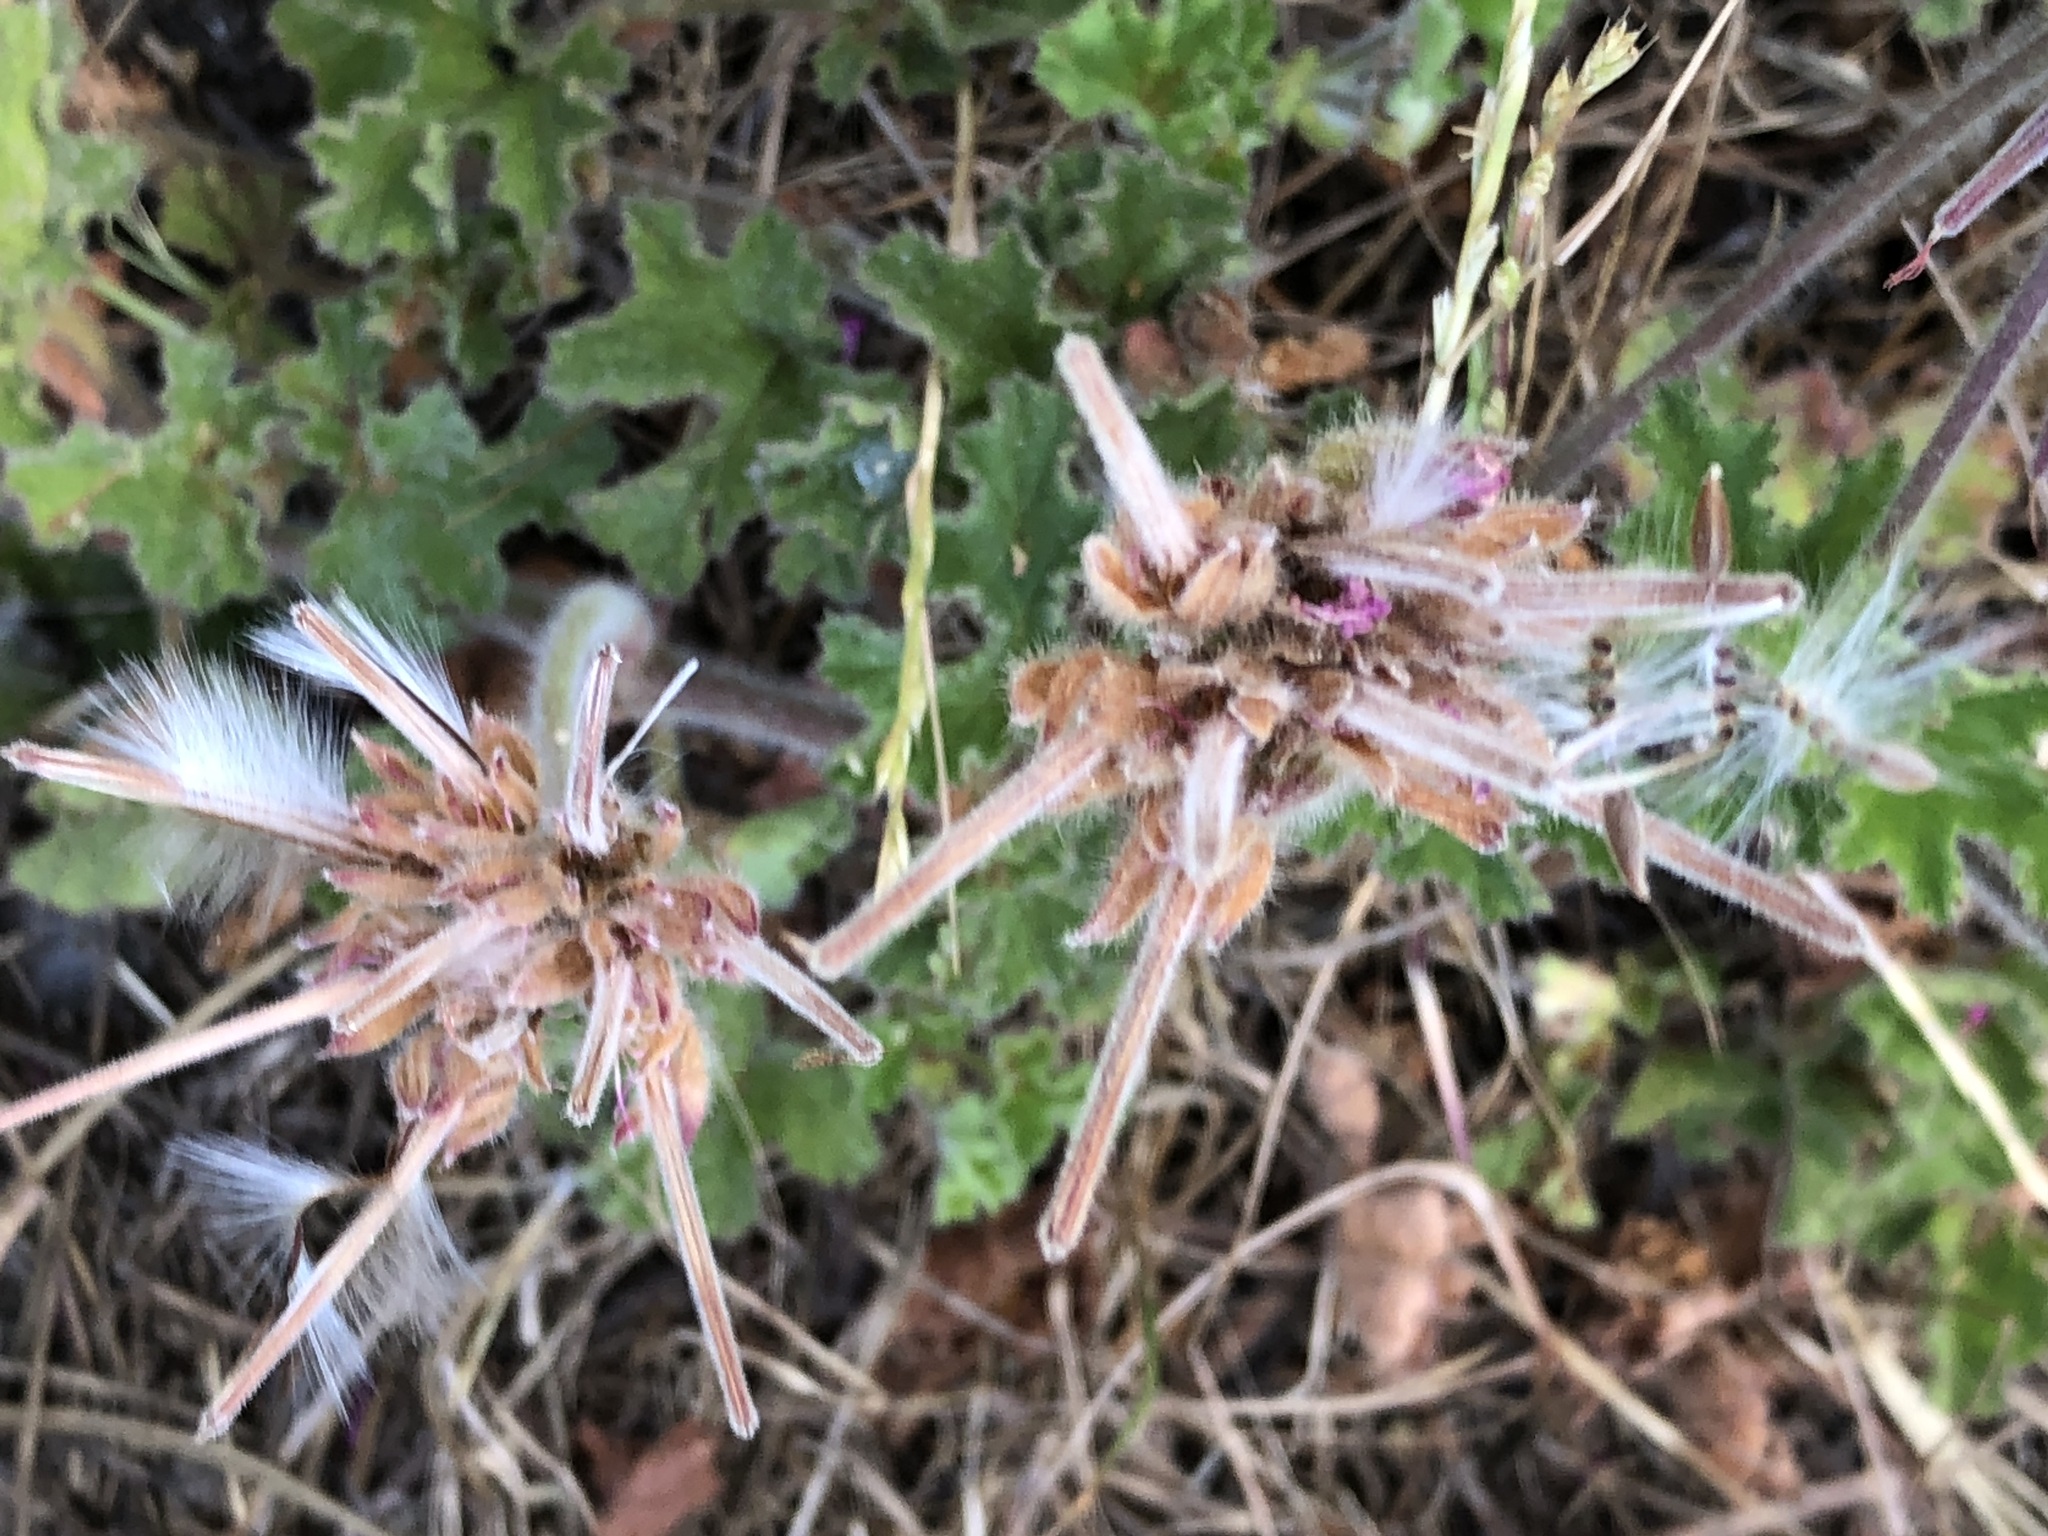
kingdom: Plantae
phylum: Tracheophyta
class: Magnoliopsida
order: Geraniales
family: Geraniaceae
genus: Pelargonium
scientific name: Pelargonium capitatum
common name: Rose scented geranium
